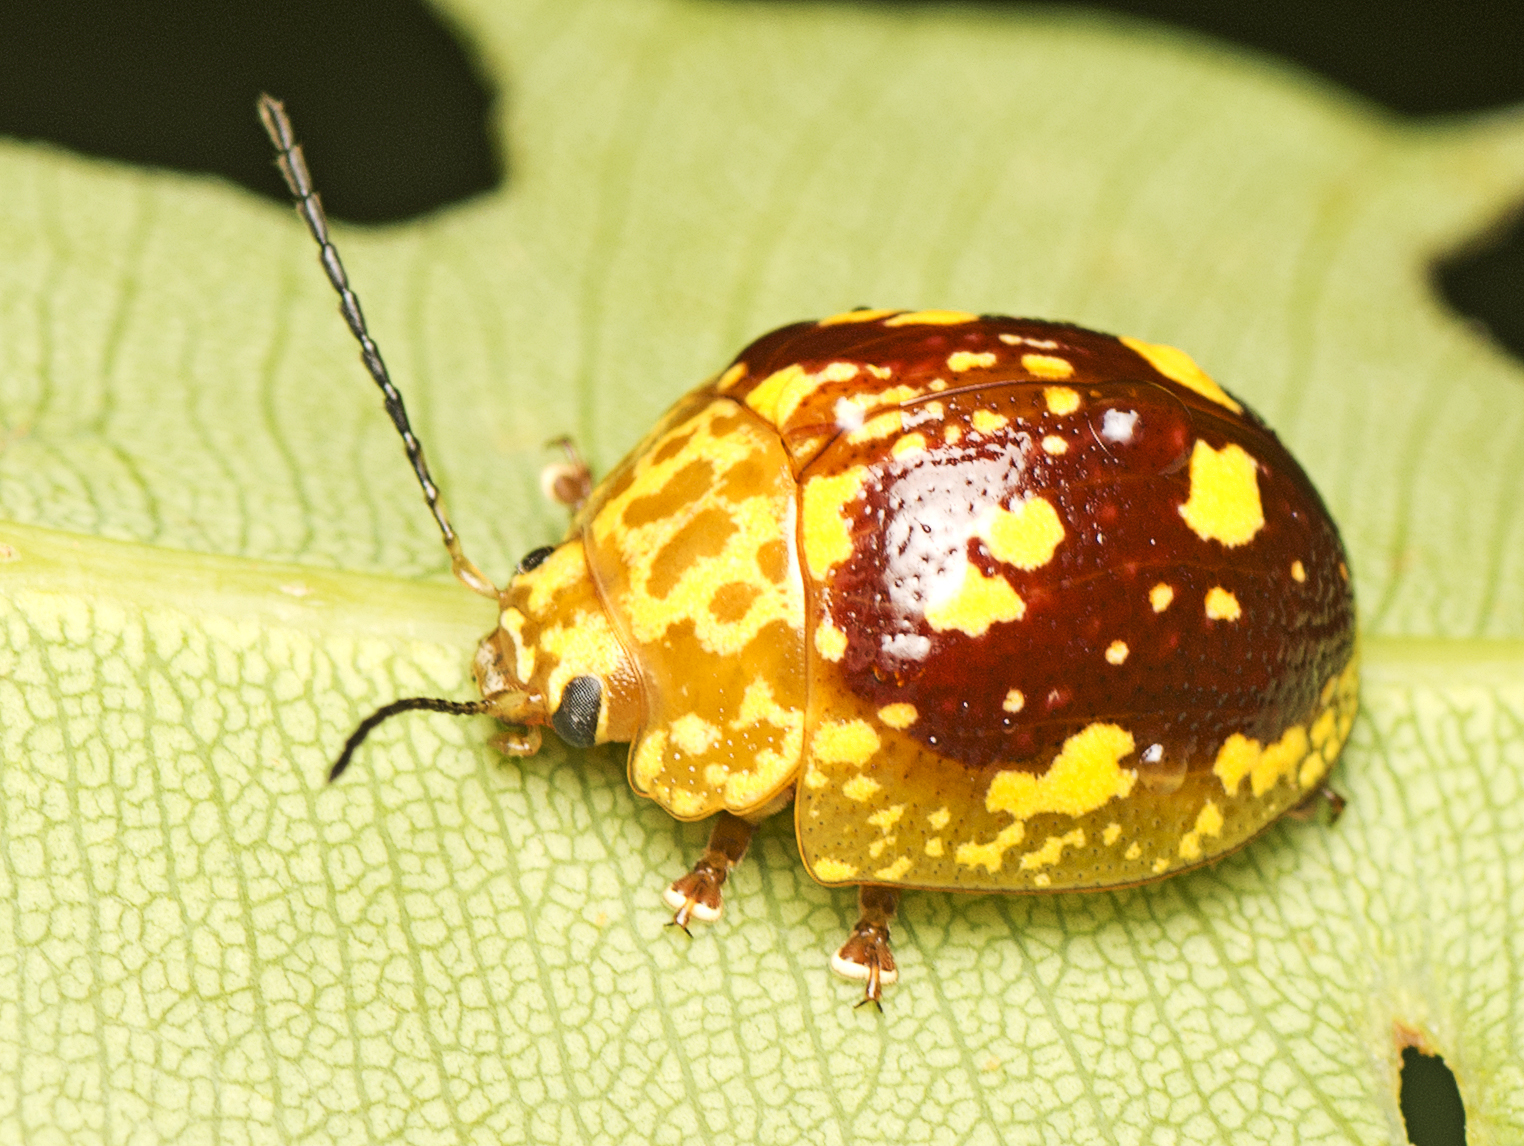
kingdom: Animalia
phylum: Arthropoda
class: Insecta
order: Coleoptera
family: Chrysomelidae
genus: Paropsis
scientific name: Paropsis maculata
